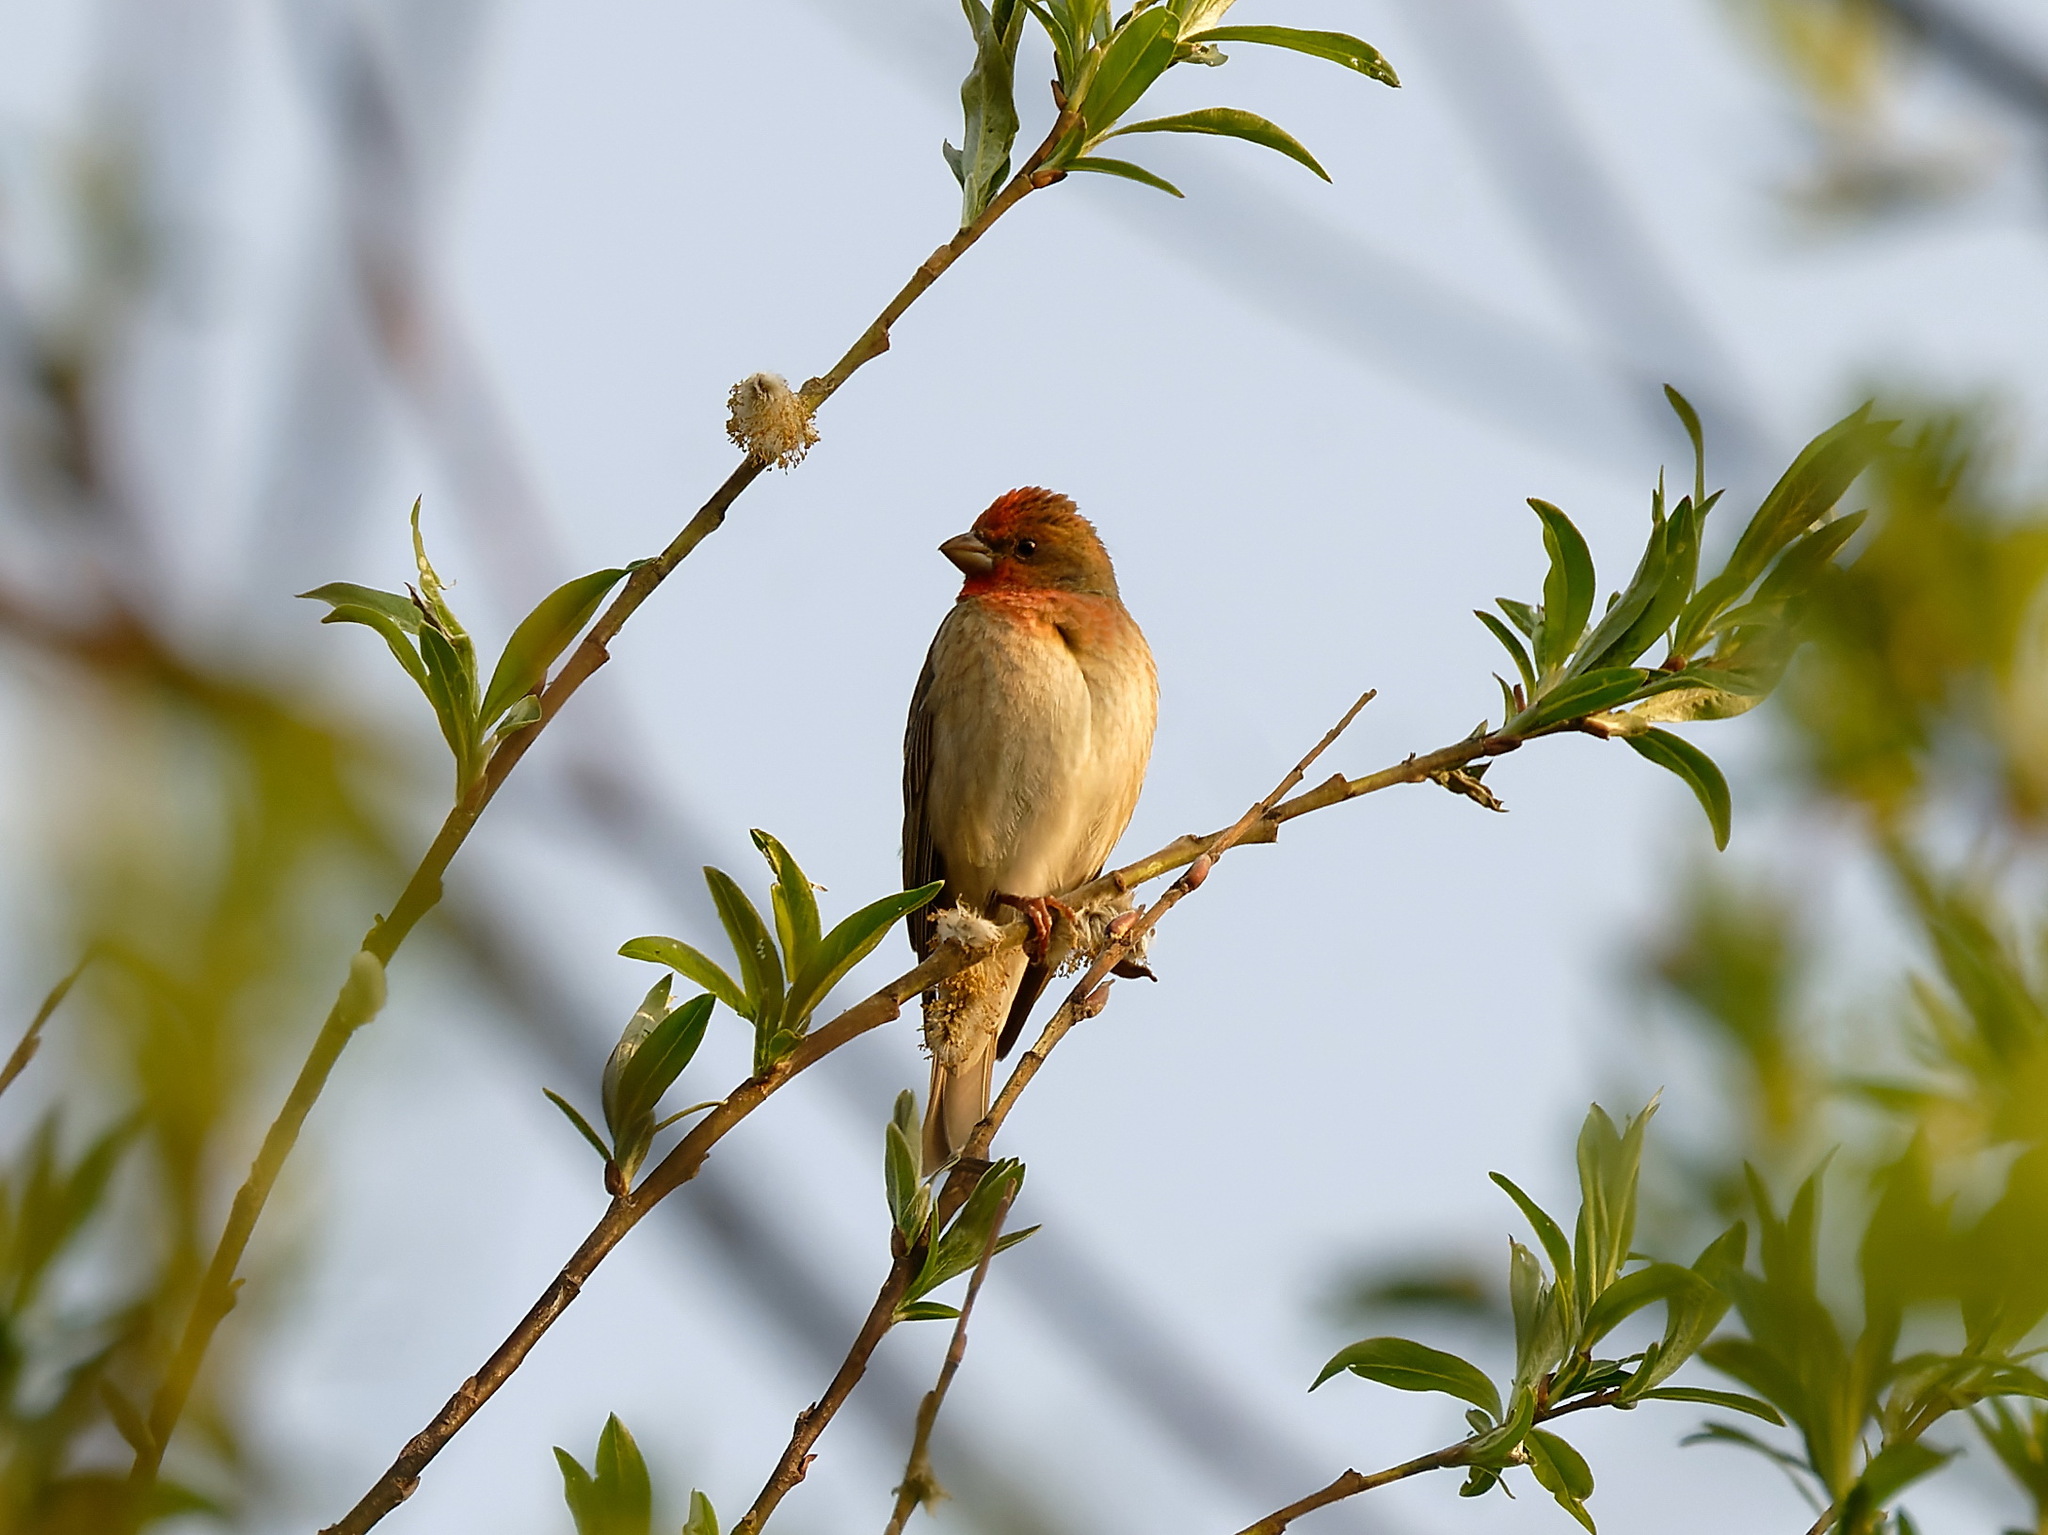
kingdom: Animalia
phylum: Chordata
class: Aves
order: Passeriformes
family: Fringillidae
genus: Carpodacus
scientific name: Carpodacus erythrinus
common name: Common rosefinch
